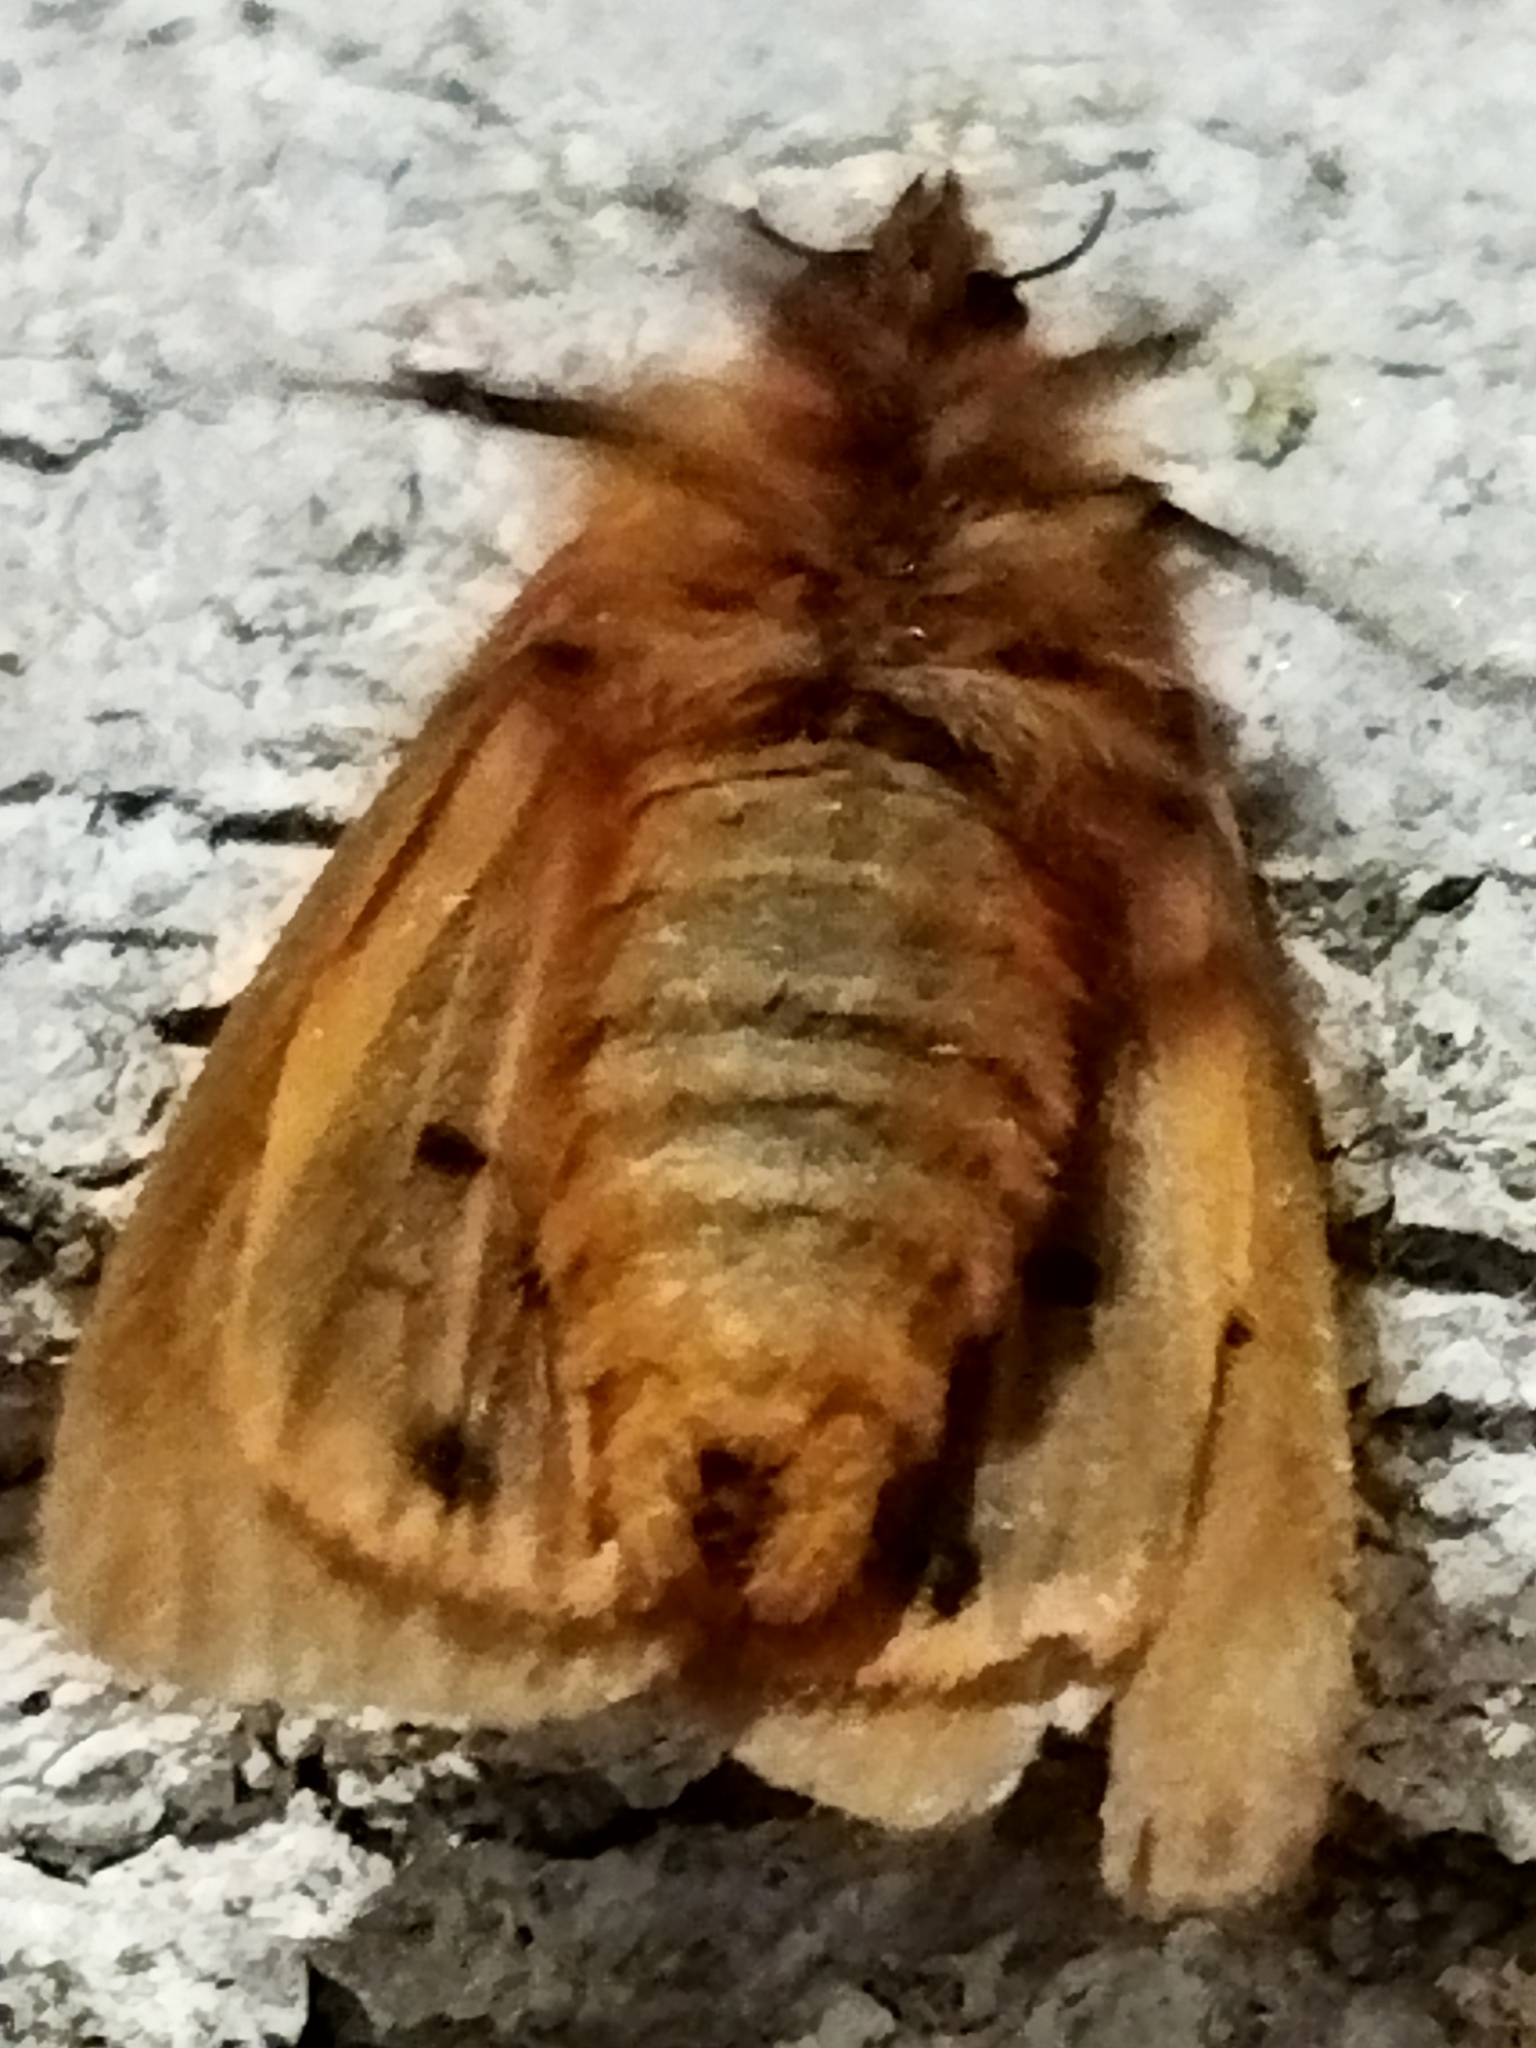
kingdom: Animalia
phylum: Arthropoda
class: Insecta
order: Lepidoptera
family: Erebidae
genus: Phragmatobia
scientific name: Phragmatobia fuliginosa
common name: Ruby tiger
